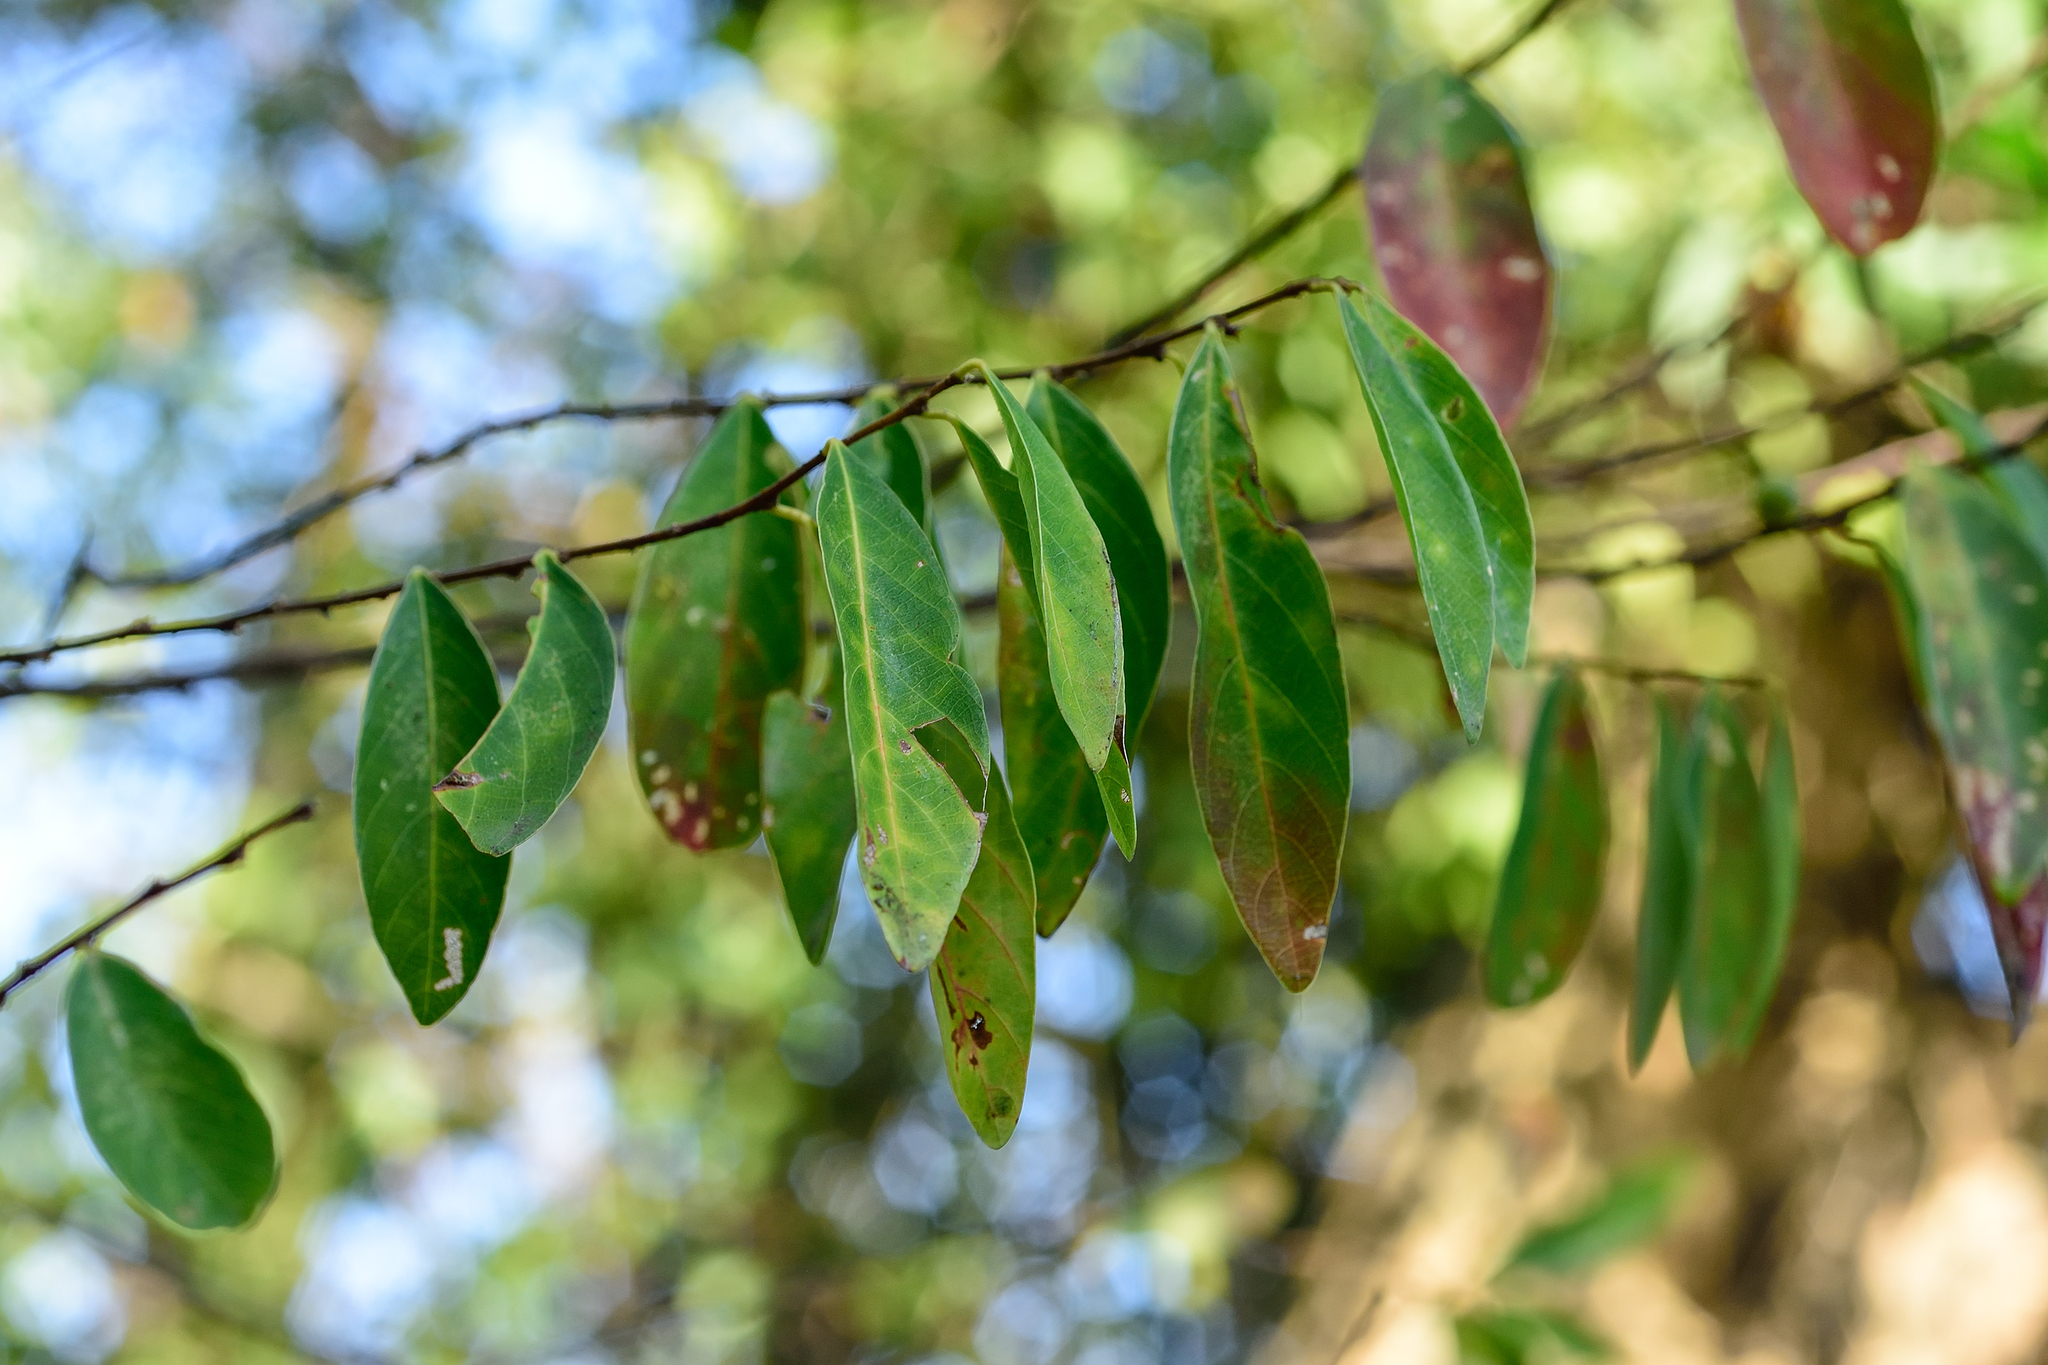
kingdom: Plantae
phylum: Tracheophyta
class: Magnoliopsida
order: Malpighiales
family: Phyllanthaceae
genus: Bridelia
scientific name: Bridelia tomentosa
